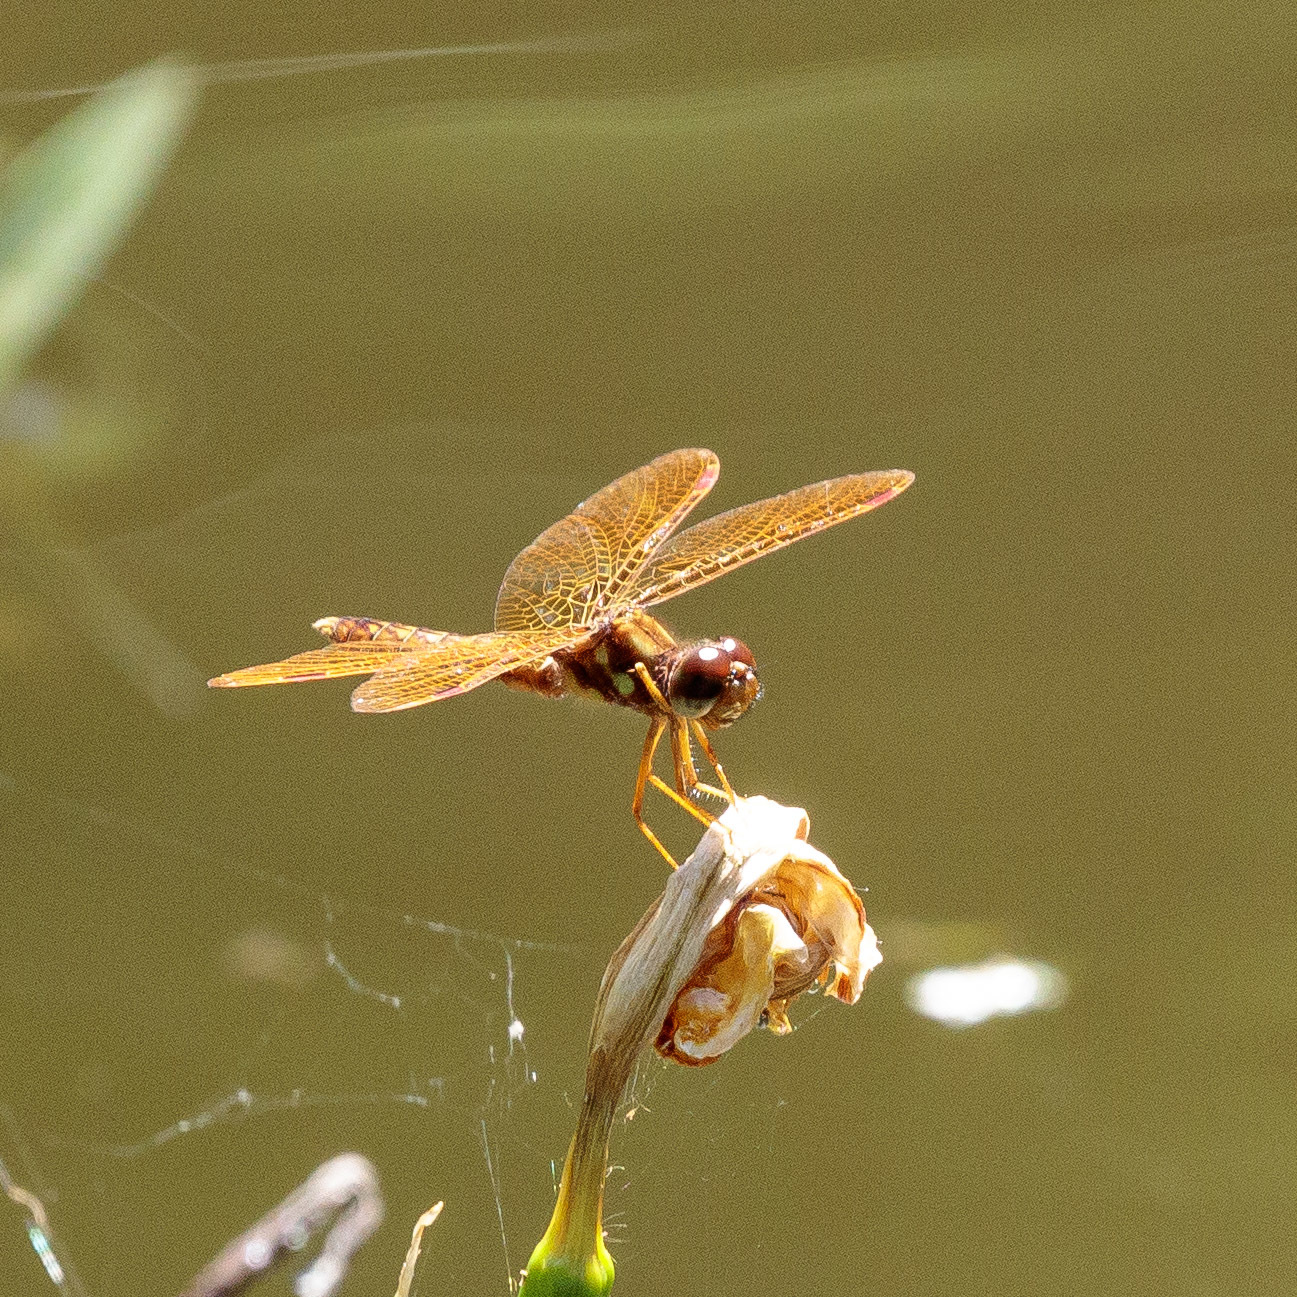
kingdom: Animalia
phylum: Arthropoda
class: Insecta
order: Odonata
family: Libellulidae
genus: Perithemis
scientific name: Perithemis tenera
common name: Eastern amberwing
